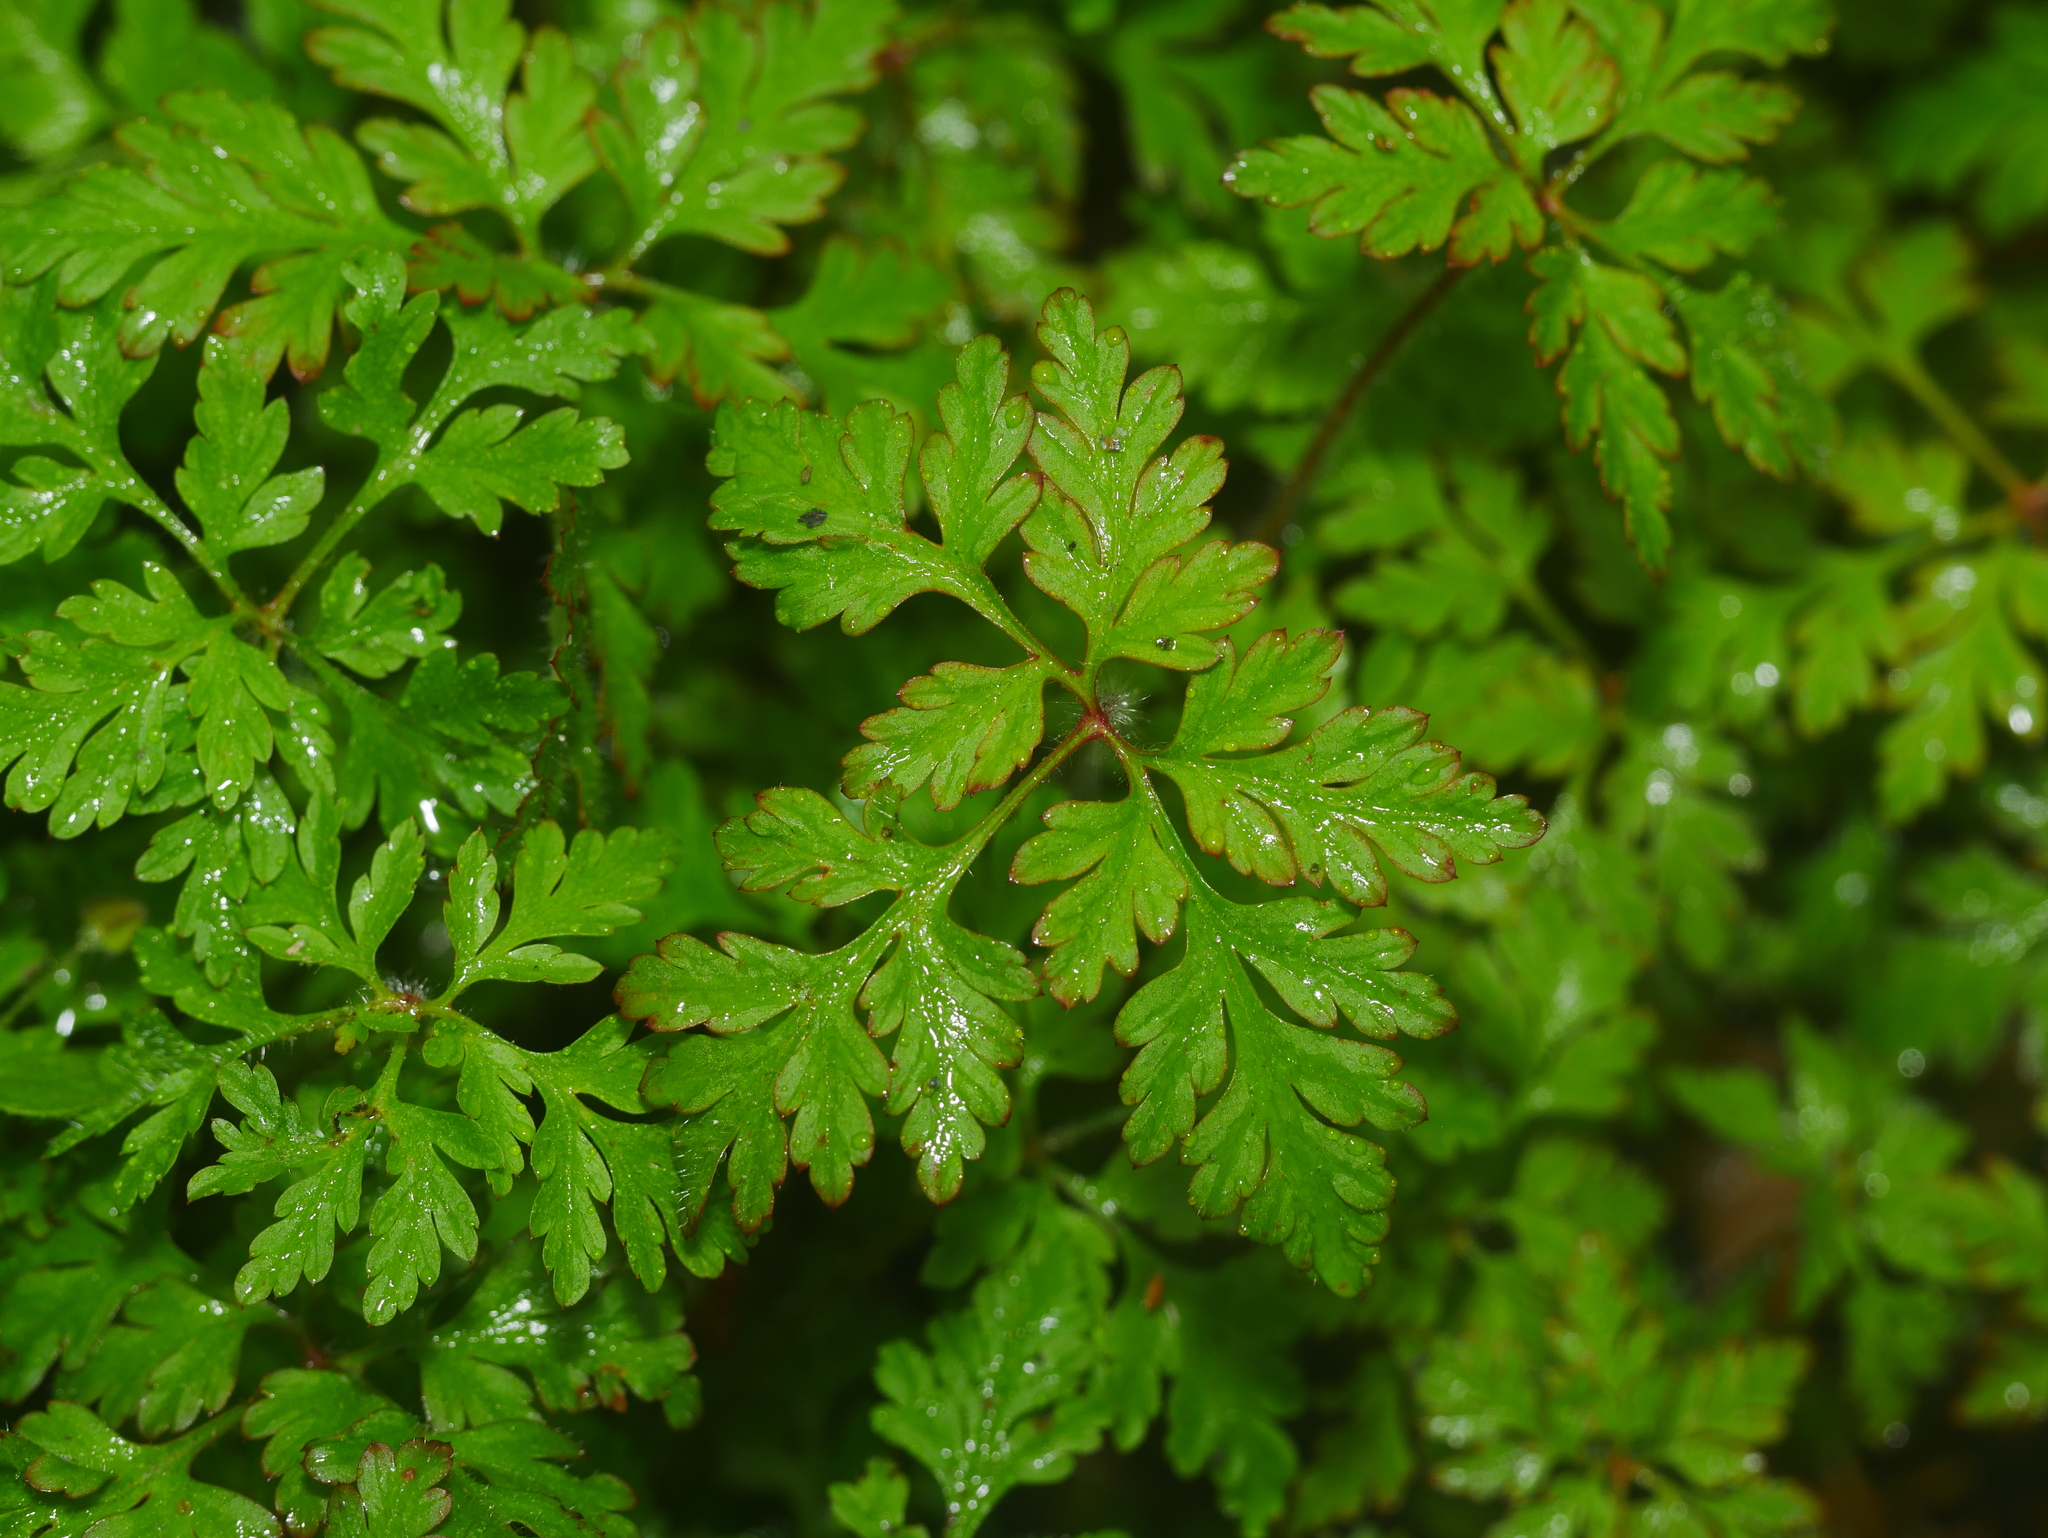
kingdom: Plantae
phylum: Tracheophyta
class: Magnoliopsida
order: Geraniales
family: Geraniaceae
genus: Geranium
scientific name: Geranium robertianum
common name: Herb-robert
